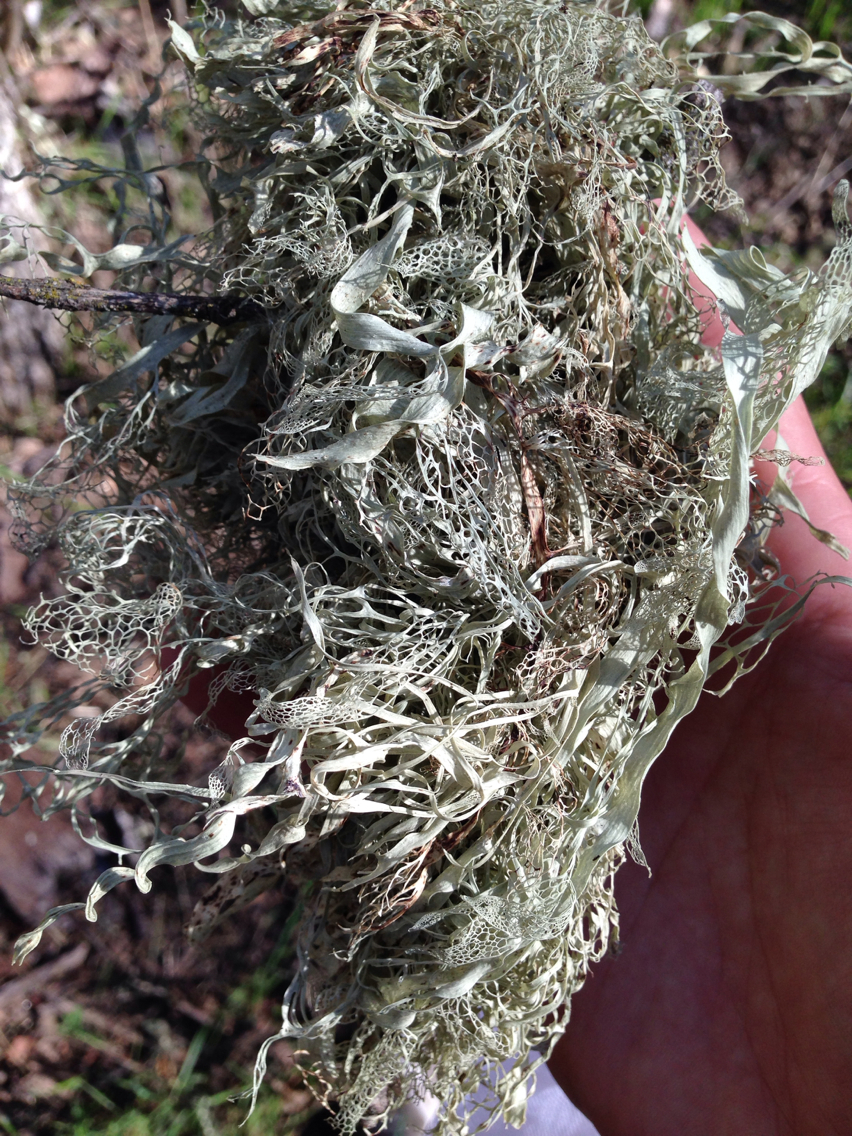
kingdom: Fungi
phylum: Ascomycota
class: Lecanoromycetes
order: Lecanorales
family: Ramalinaceae
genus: Ramalina
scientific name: Ramalina menziesii
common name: Lace lichen
